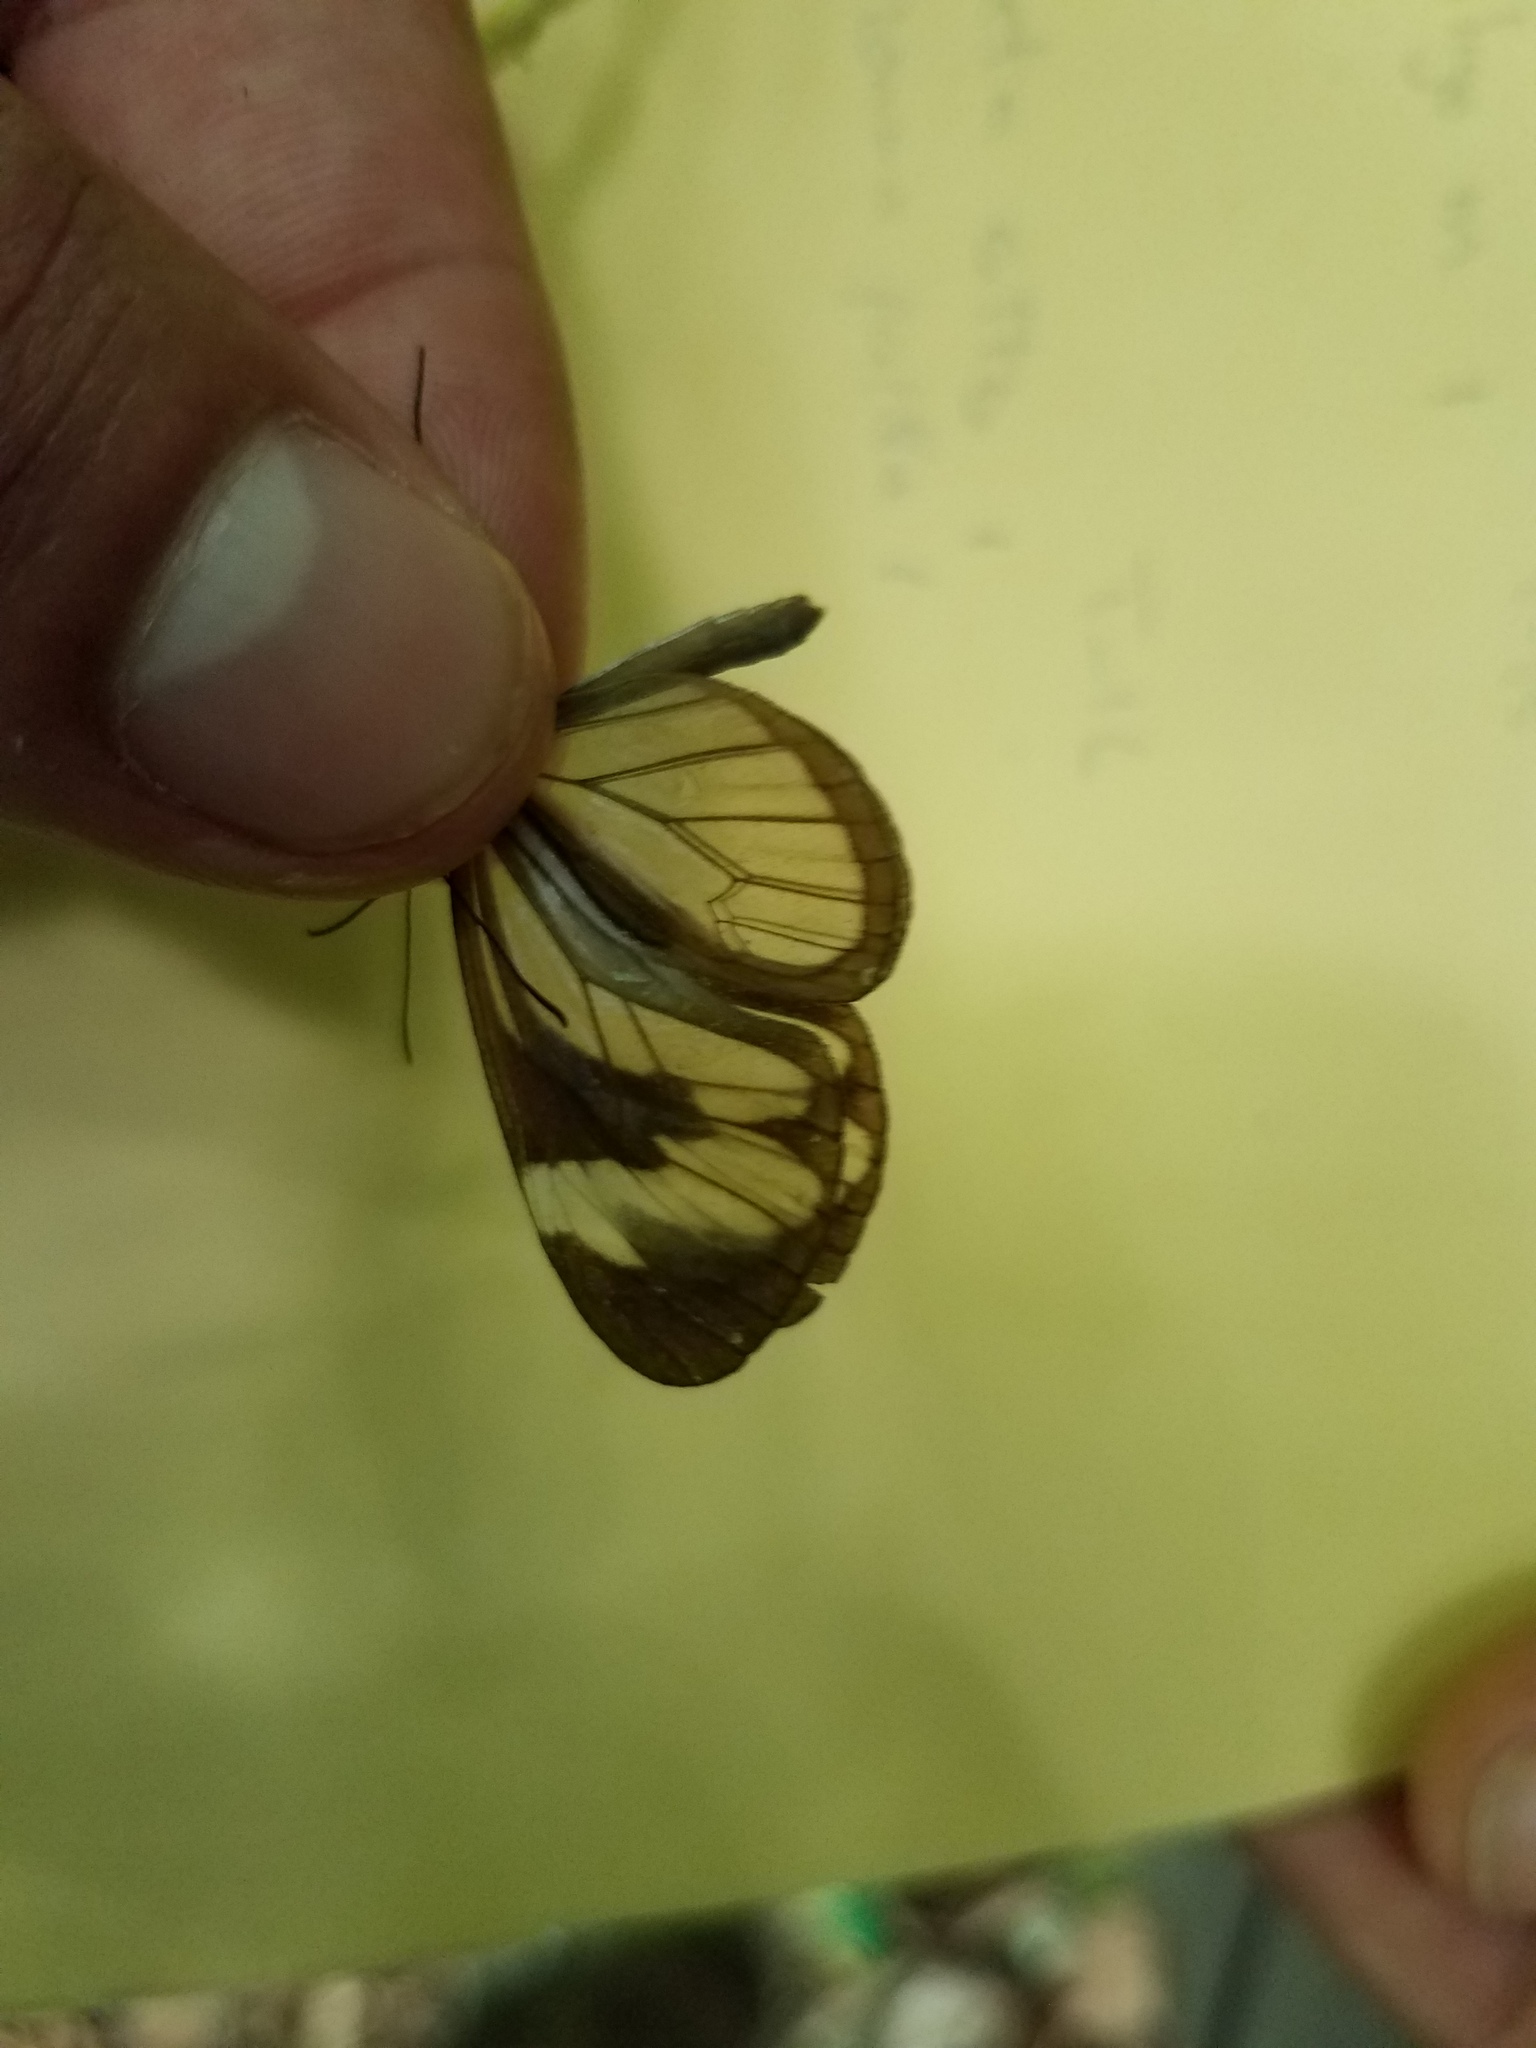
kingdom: Animalia
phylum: Arthropoda
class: Insecta
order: Lepidoptera
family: Nymphalidae
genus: Ithomia
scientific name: Ithomia patilla
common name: Patilla clearwing
